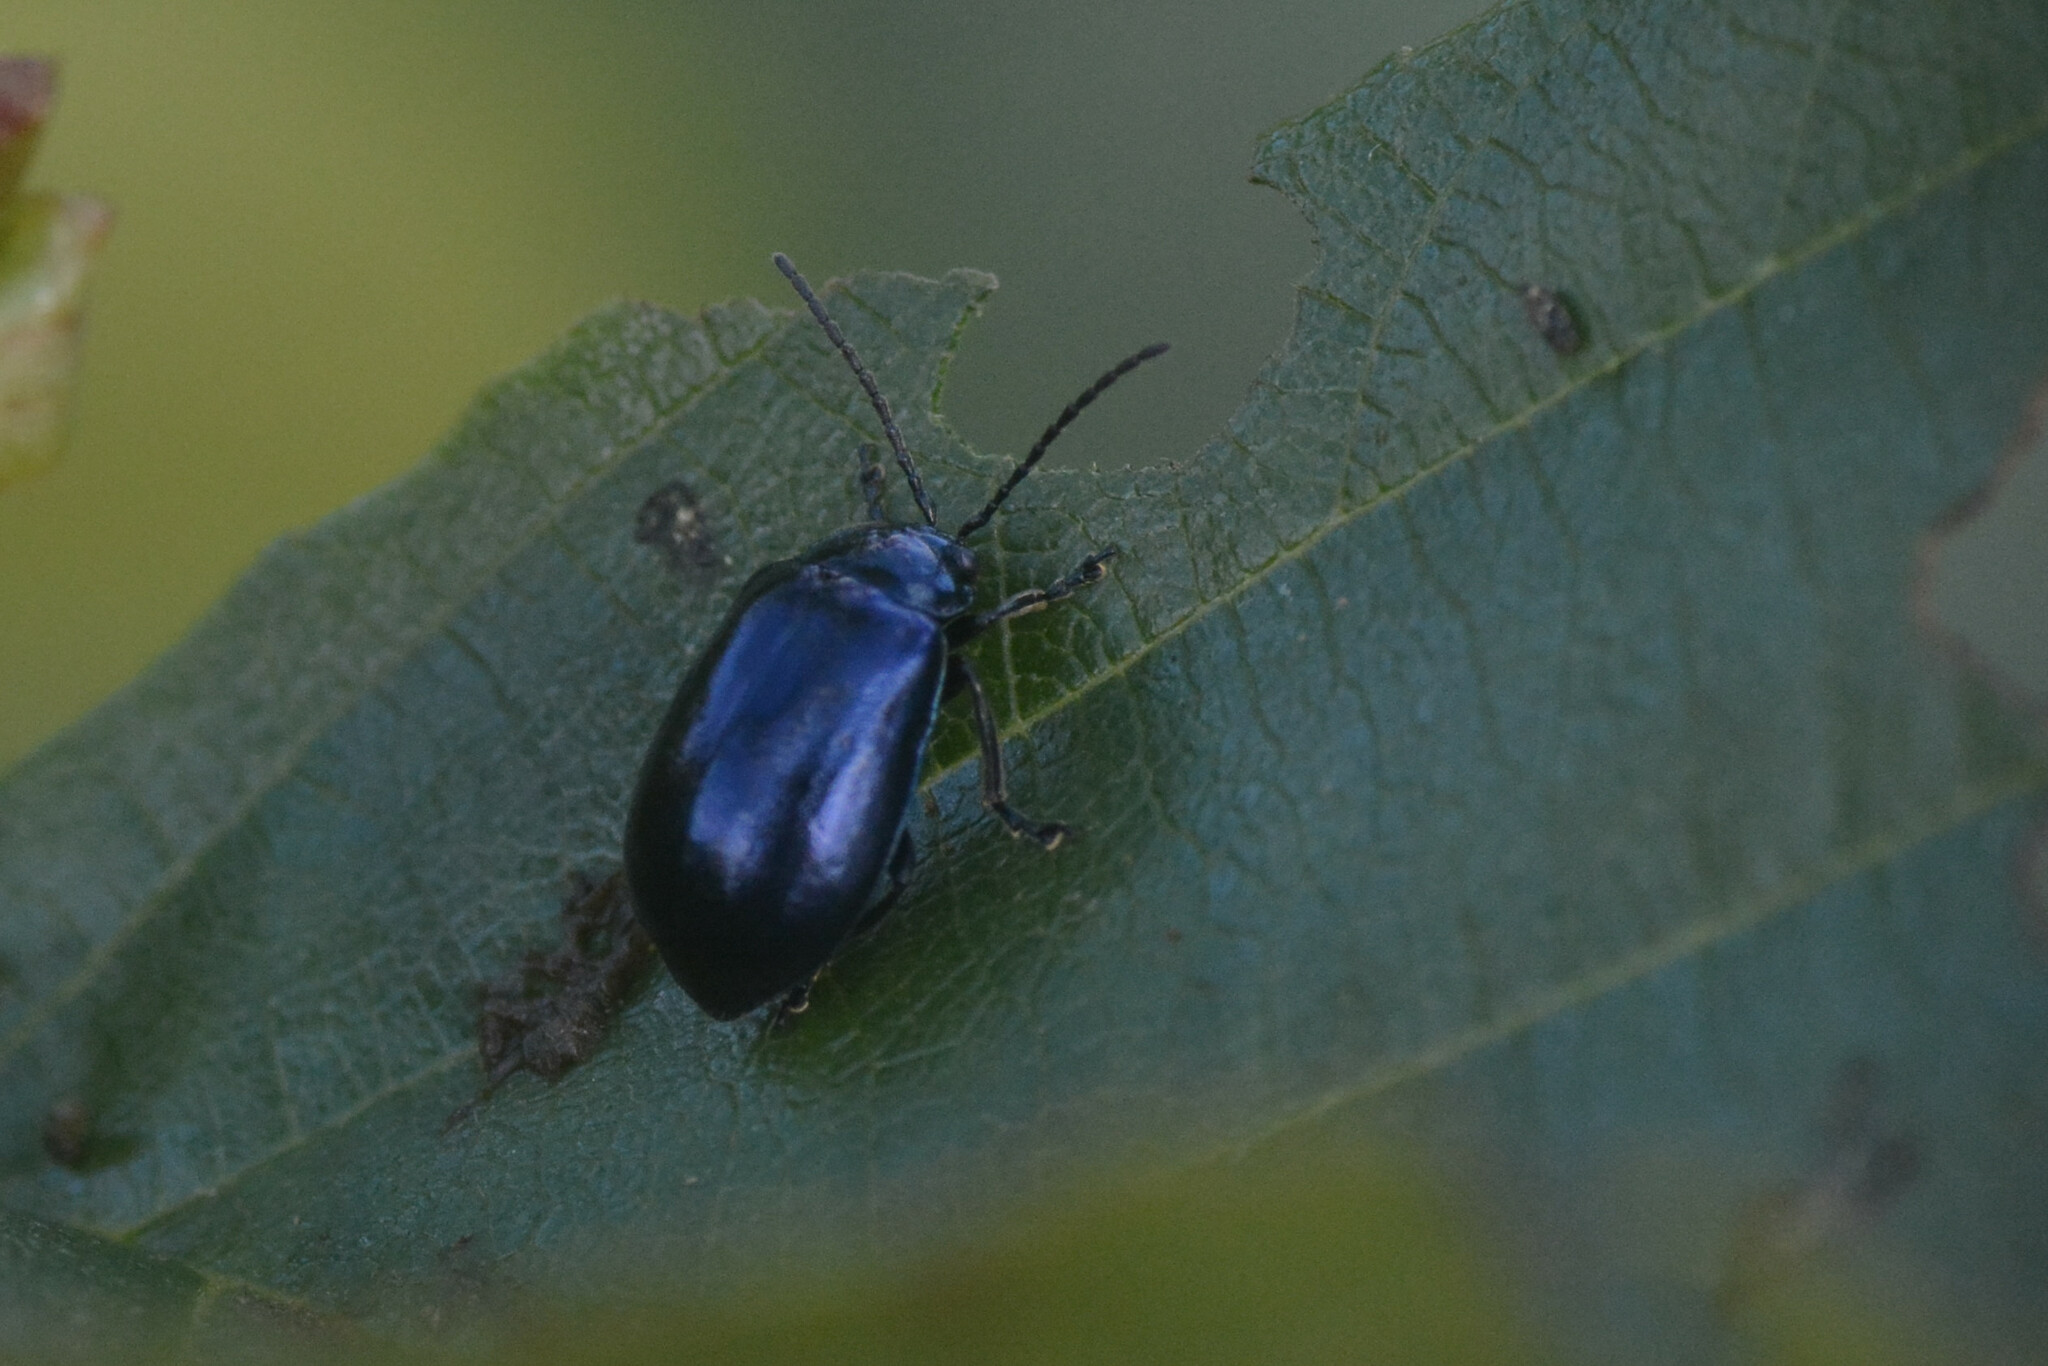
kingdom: Animalia
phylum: Arthropoda
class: Insecta
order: Coleoptera
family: Chrysomelidae
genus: Agelastica
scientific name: Agelastica alni
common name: Alder leaf beetle
